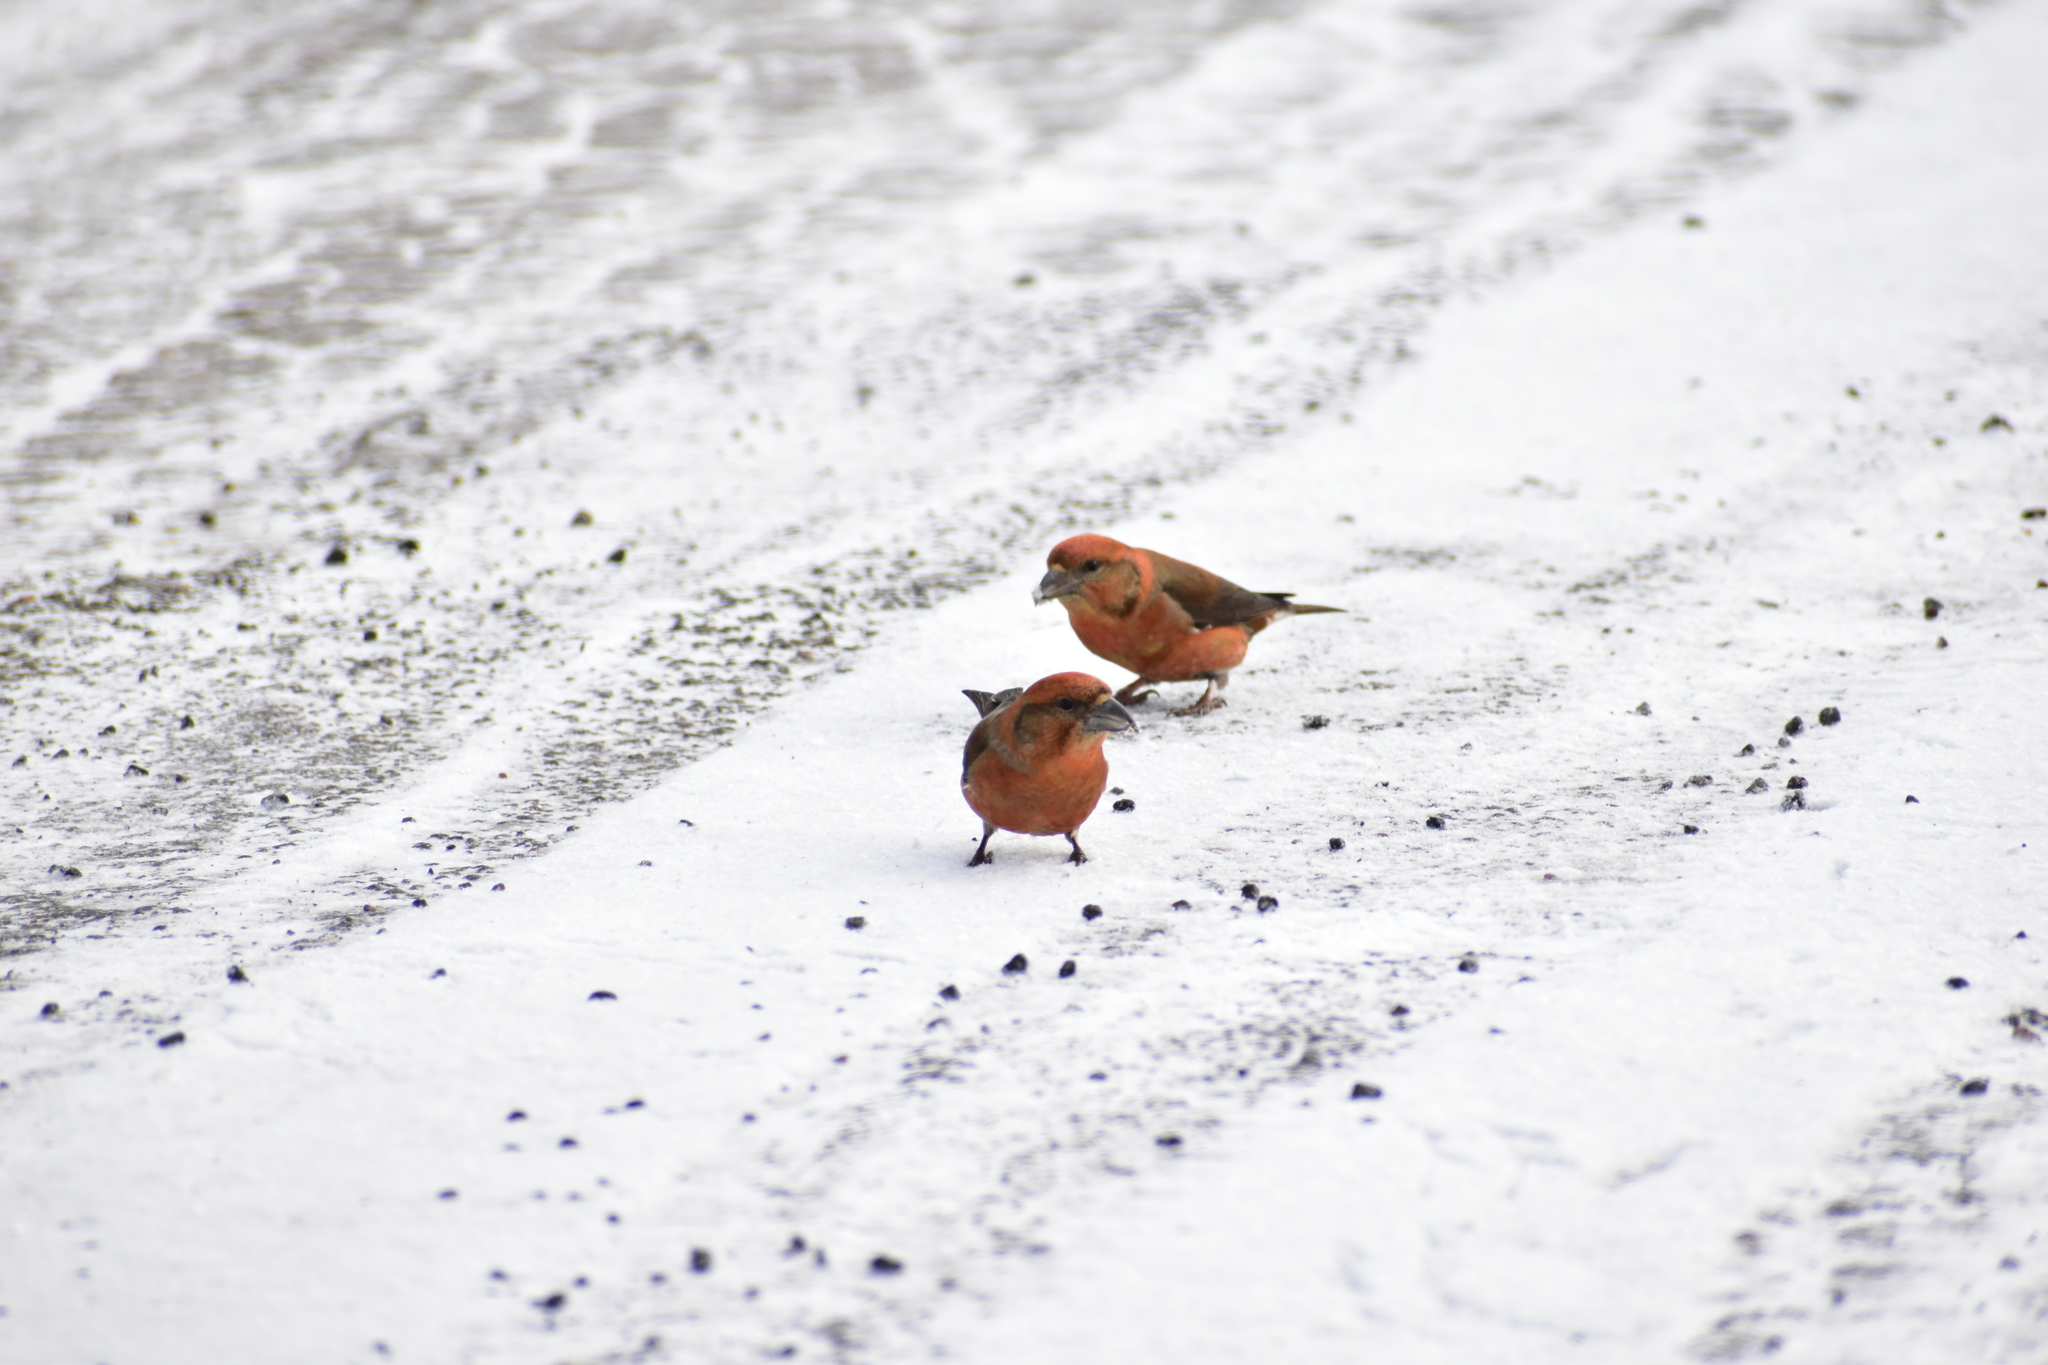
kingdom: Animalia
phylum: Chordata
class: Aves
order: Passeriformes
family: Fringillidae
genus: Loxia
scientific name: Loxia curvirostra
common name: Red crossbill
